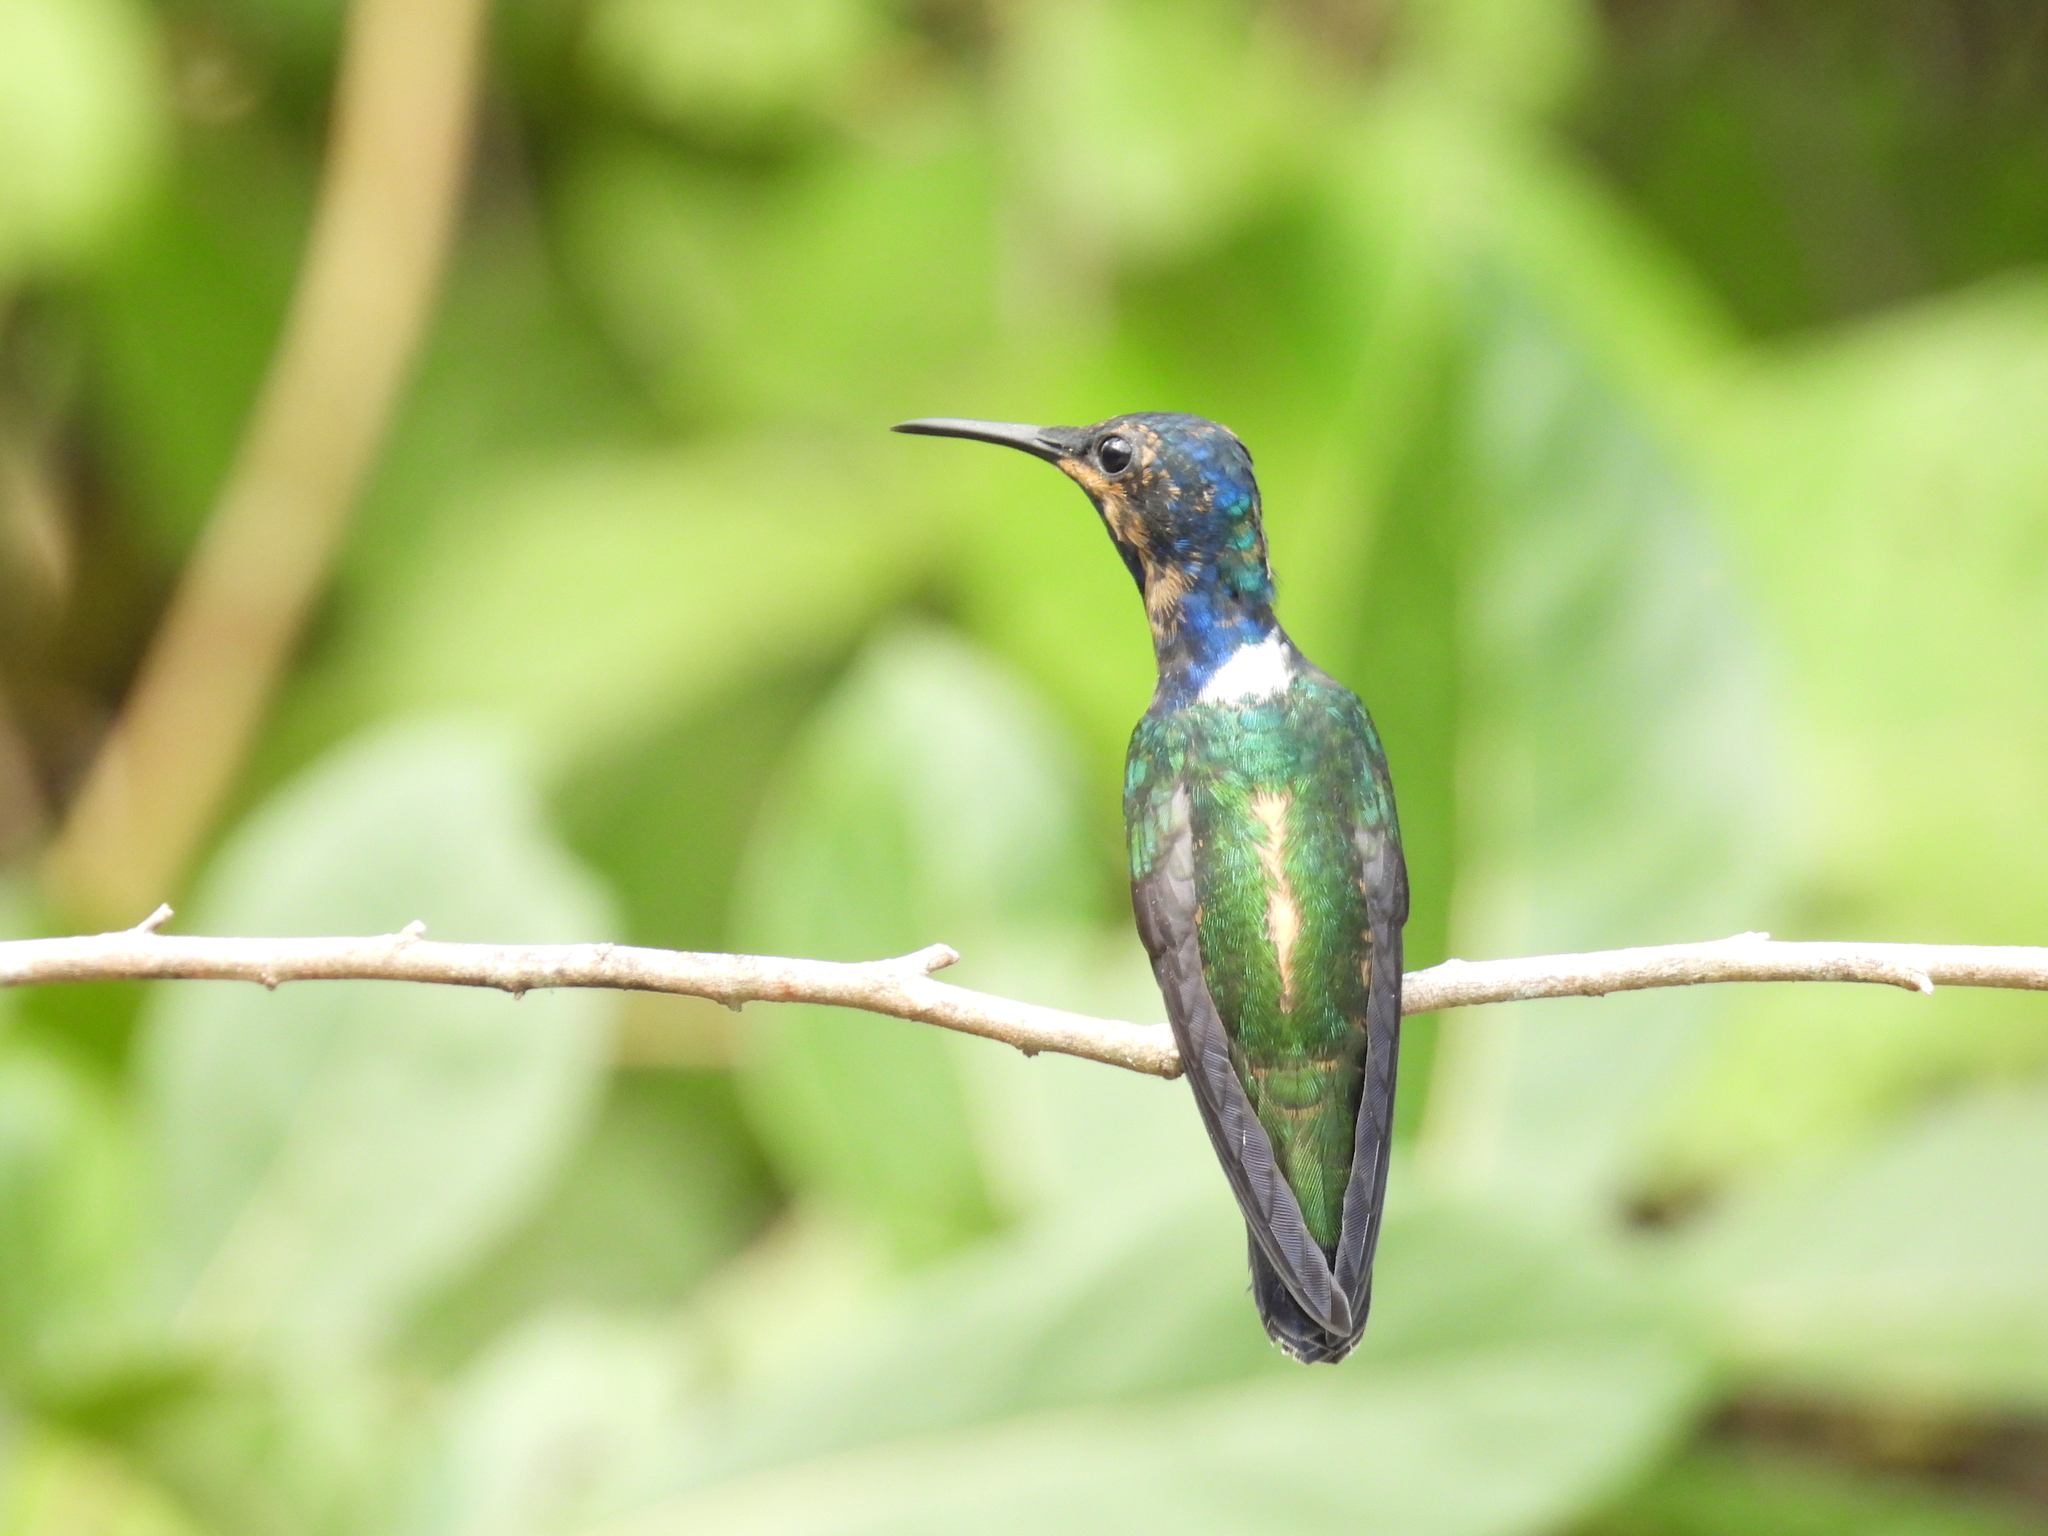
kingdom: Animalia
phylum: Chordata
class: Aves
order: Apodiformes
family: Trochilidae
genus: Florisuga
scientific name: Florisuga mellivora
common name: White-necked jacobin
